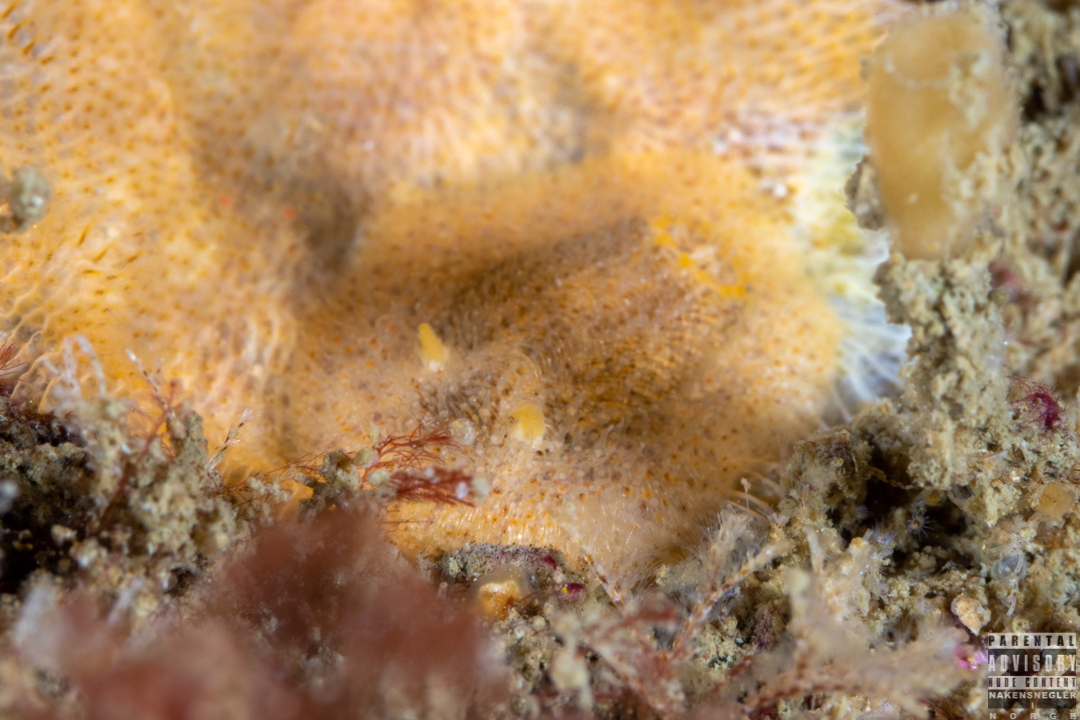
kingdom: Animalia
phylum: Mollusca
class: Gastropoda
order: Nudibranchia
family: Onchidorididae
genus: Idaliadoris
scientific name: Idaliadoris depressa
